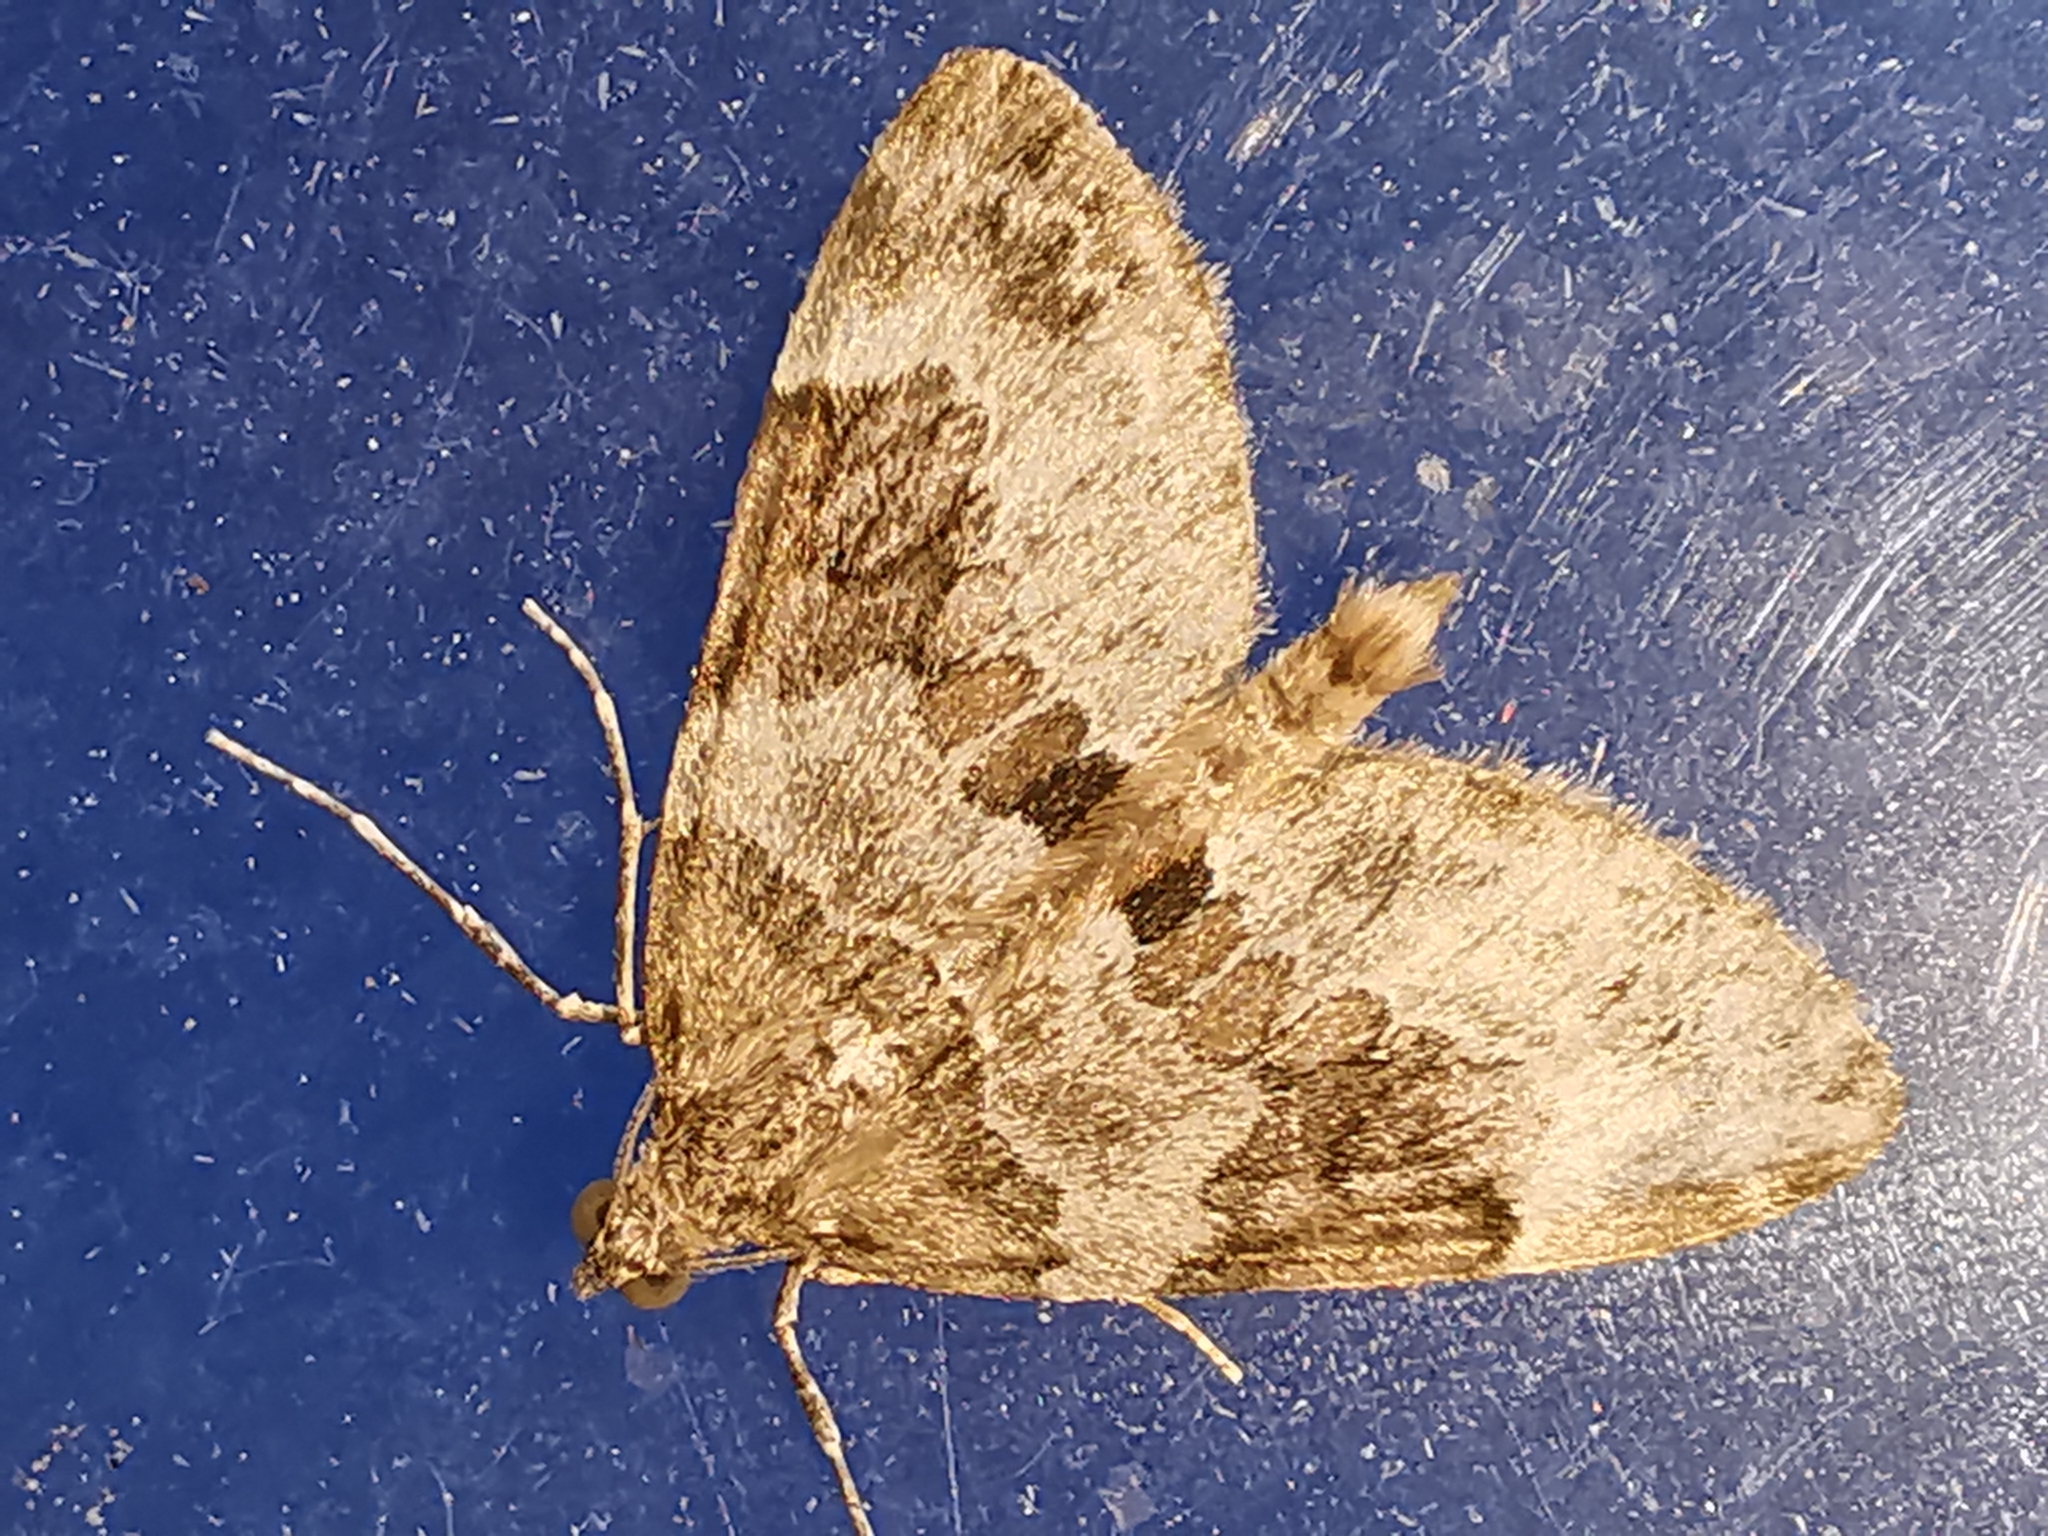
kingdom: Animalia
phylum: Arthropoda
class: Insecta
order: Lepidoptera
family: Geometridae
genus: Thera
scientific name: Thera britannica
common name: Spruce carpet
